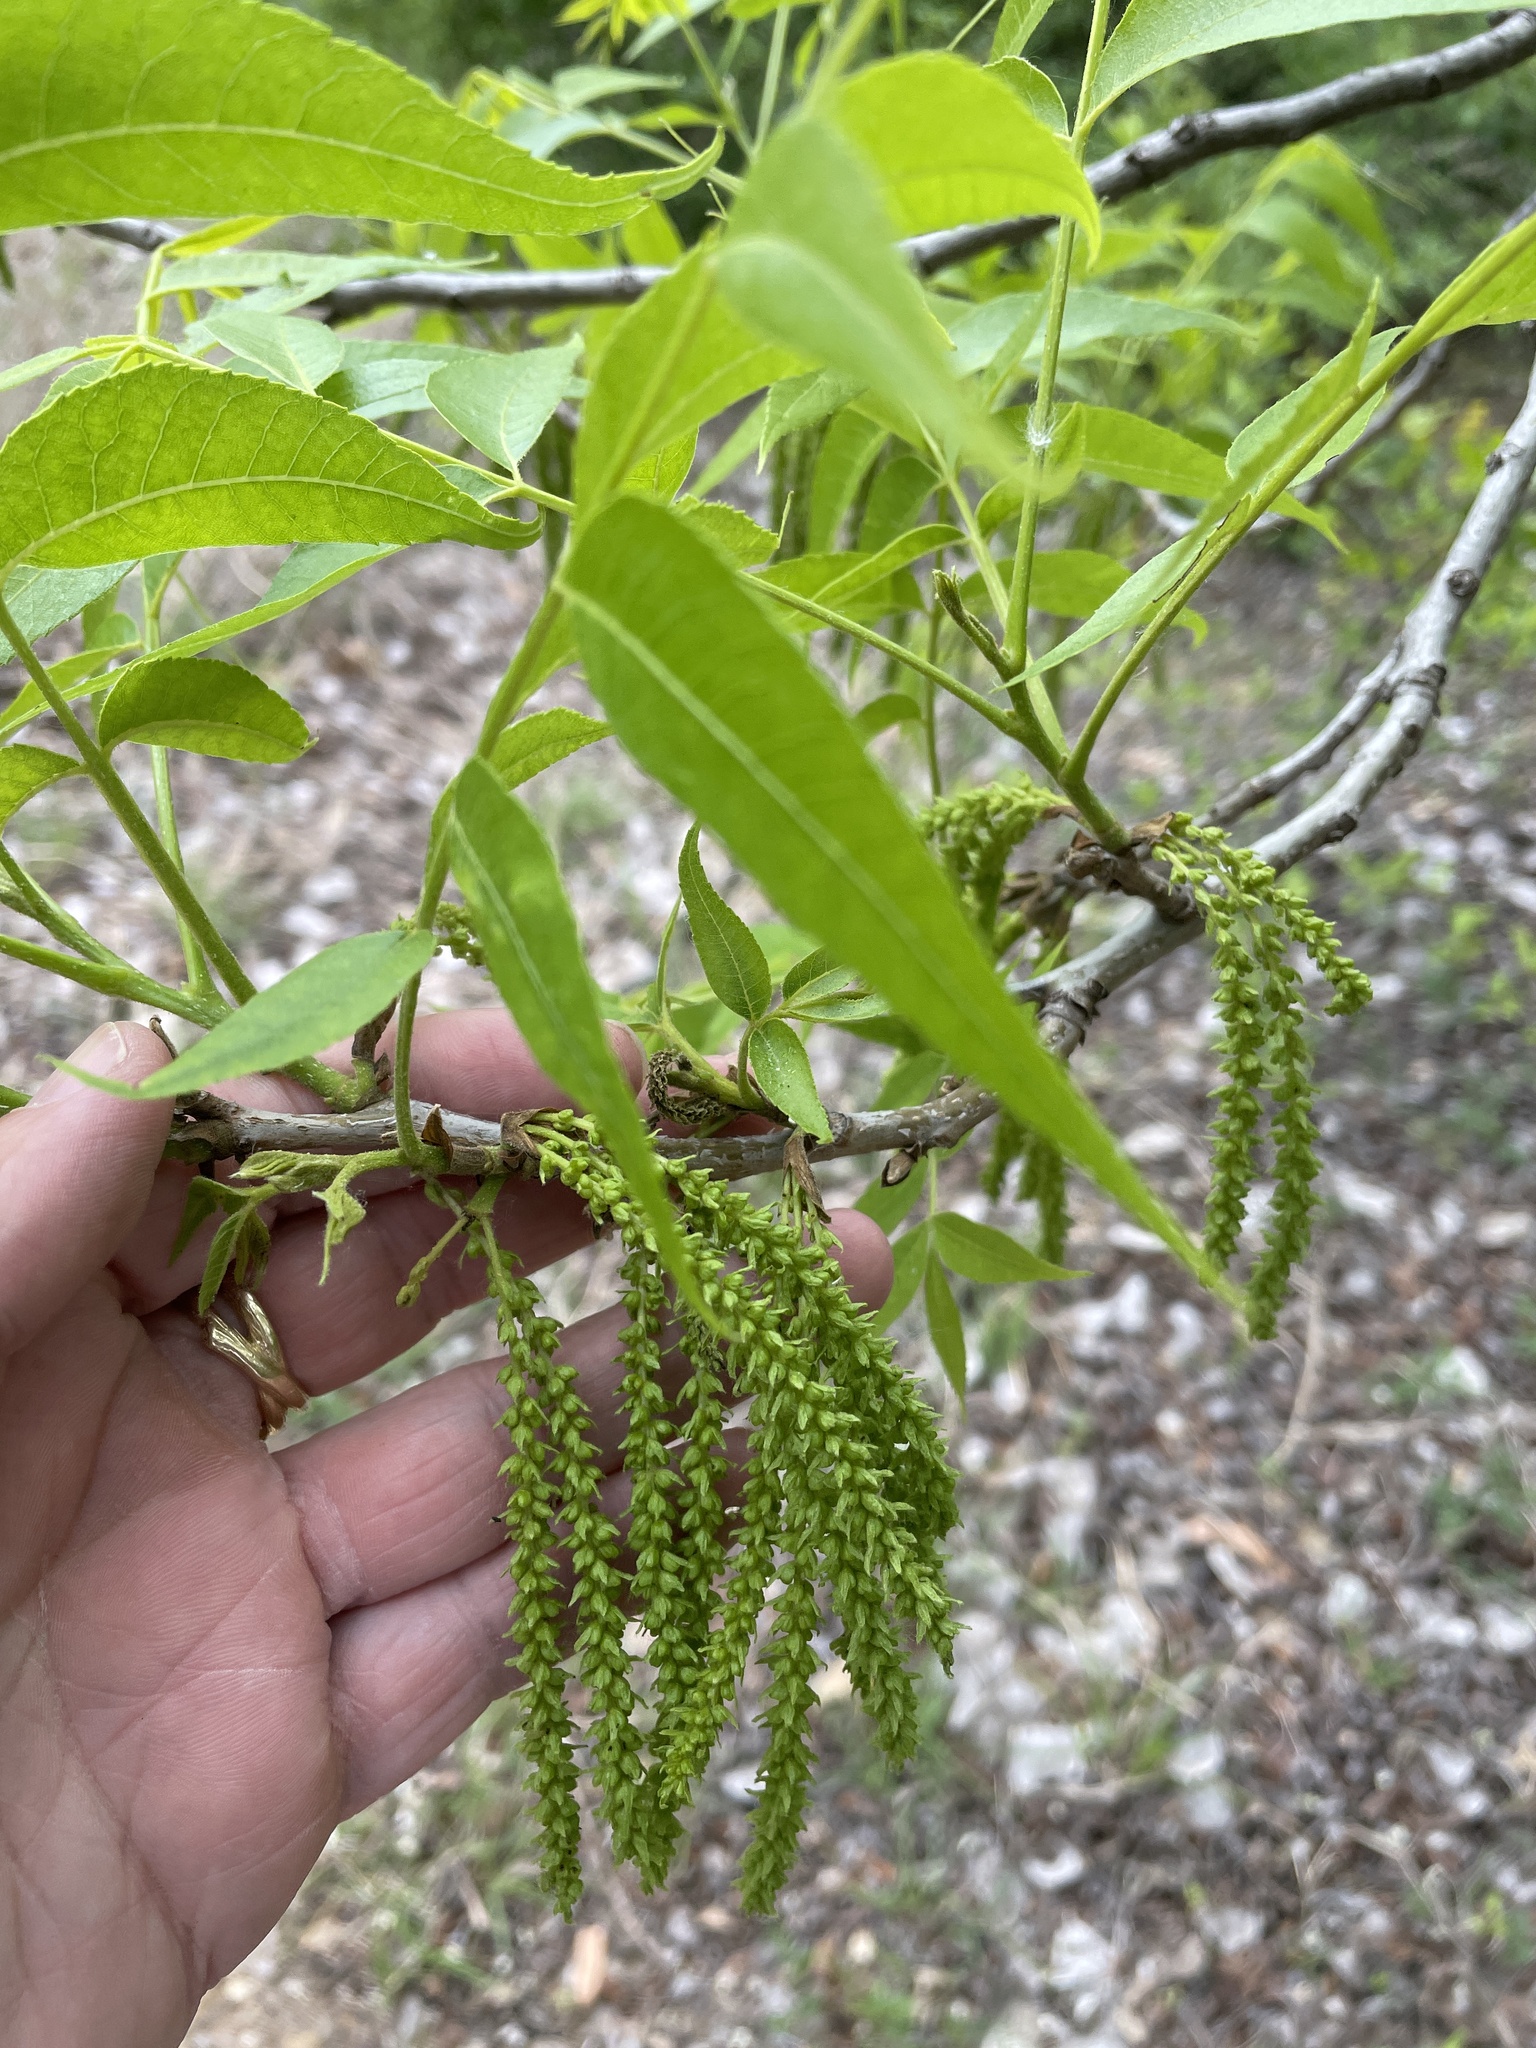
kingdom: Plantae
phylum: Tracheophyta
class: Magnoliopsida
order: Fagales
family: Juglandaceae
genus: Carya
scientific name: Carya illinoinensis
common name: Pecan
